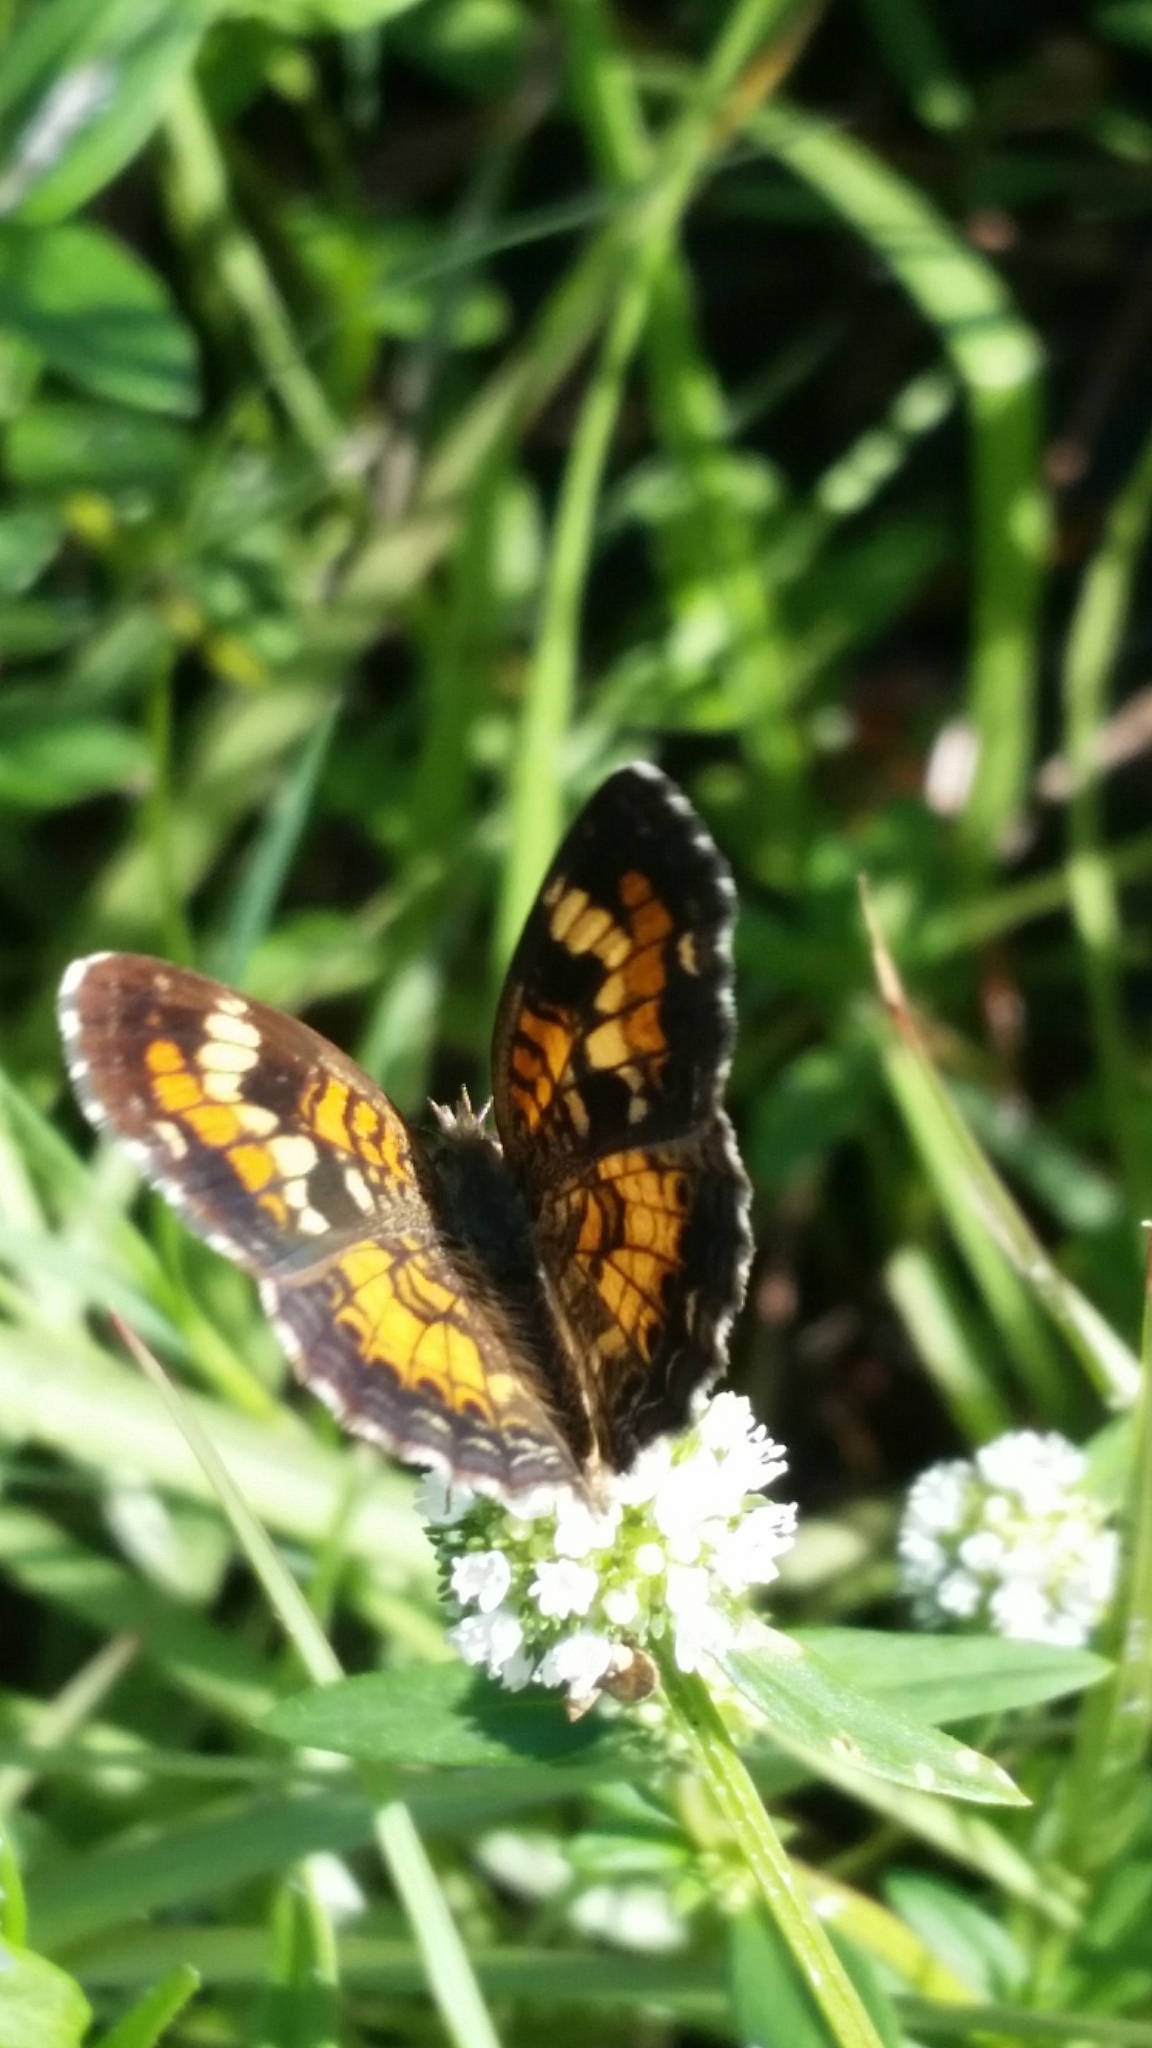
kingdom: Animalia
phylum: Arthropoda
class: Insecta
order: Lepidoptera
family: Nymphalidae
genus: Phyciodes
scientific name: Phyciodes phaon
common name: Phaon crescent
